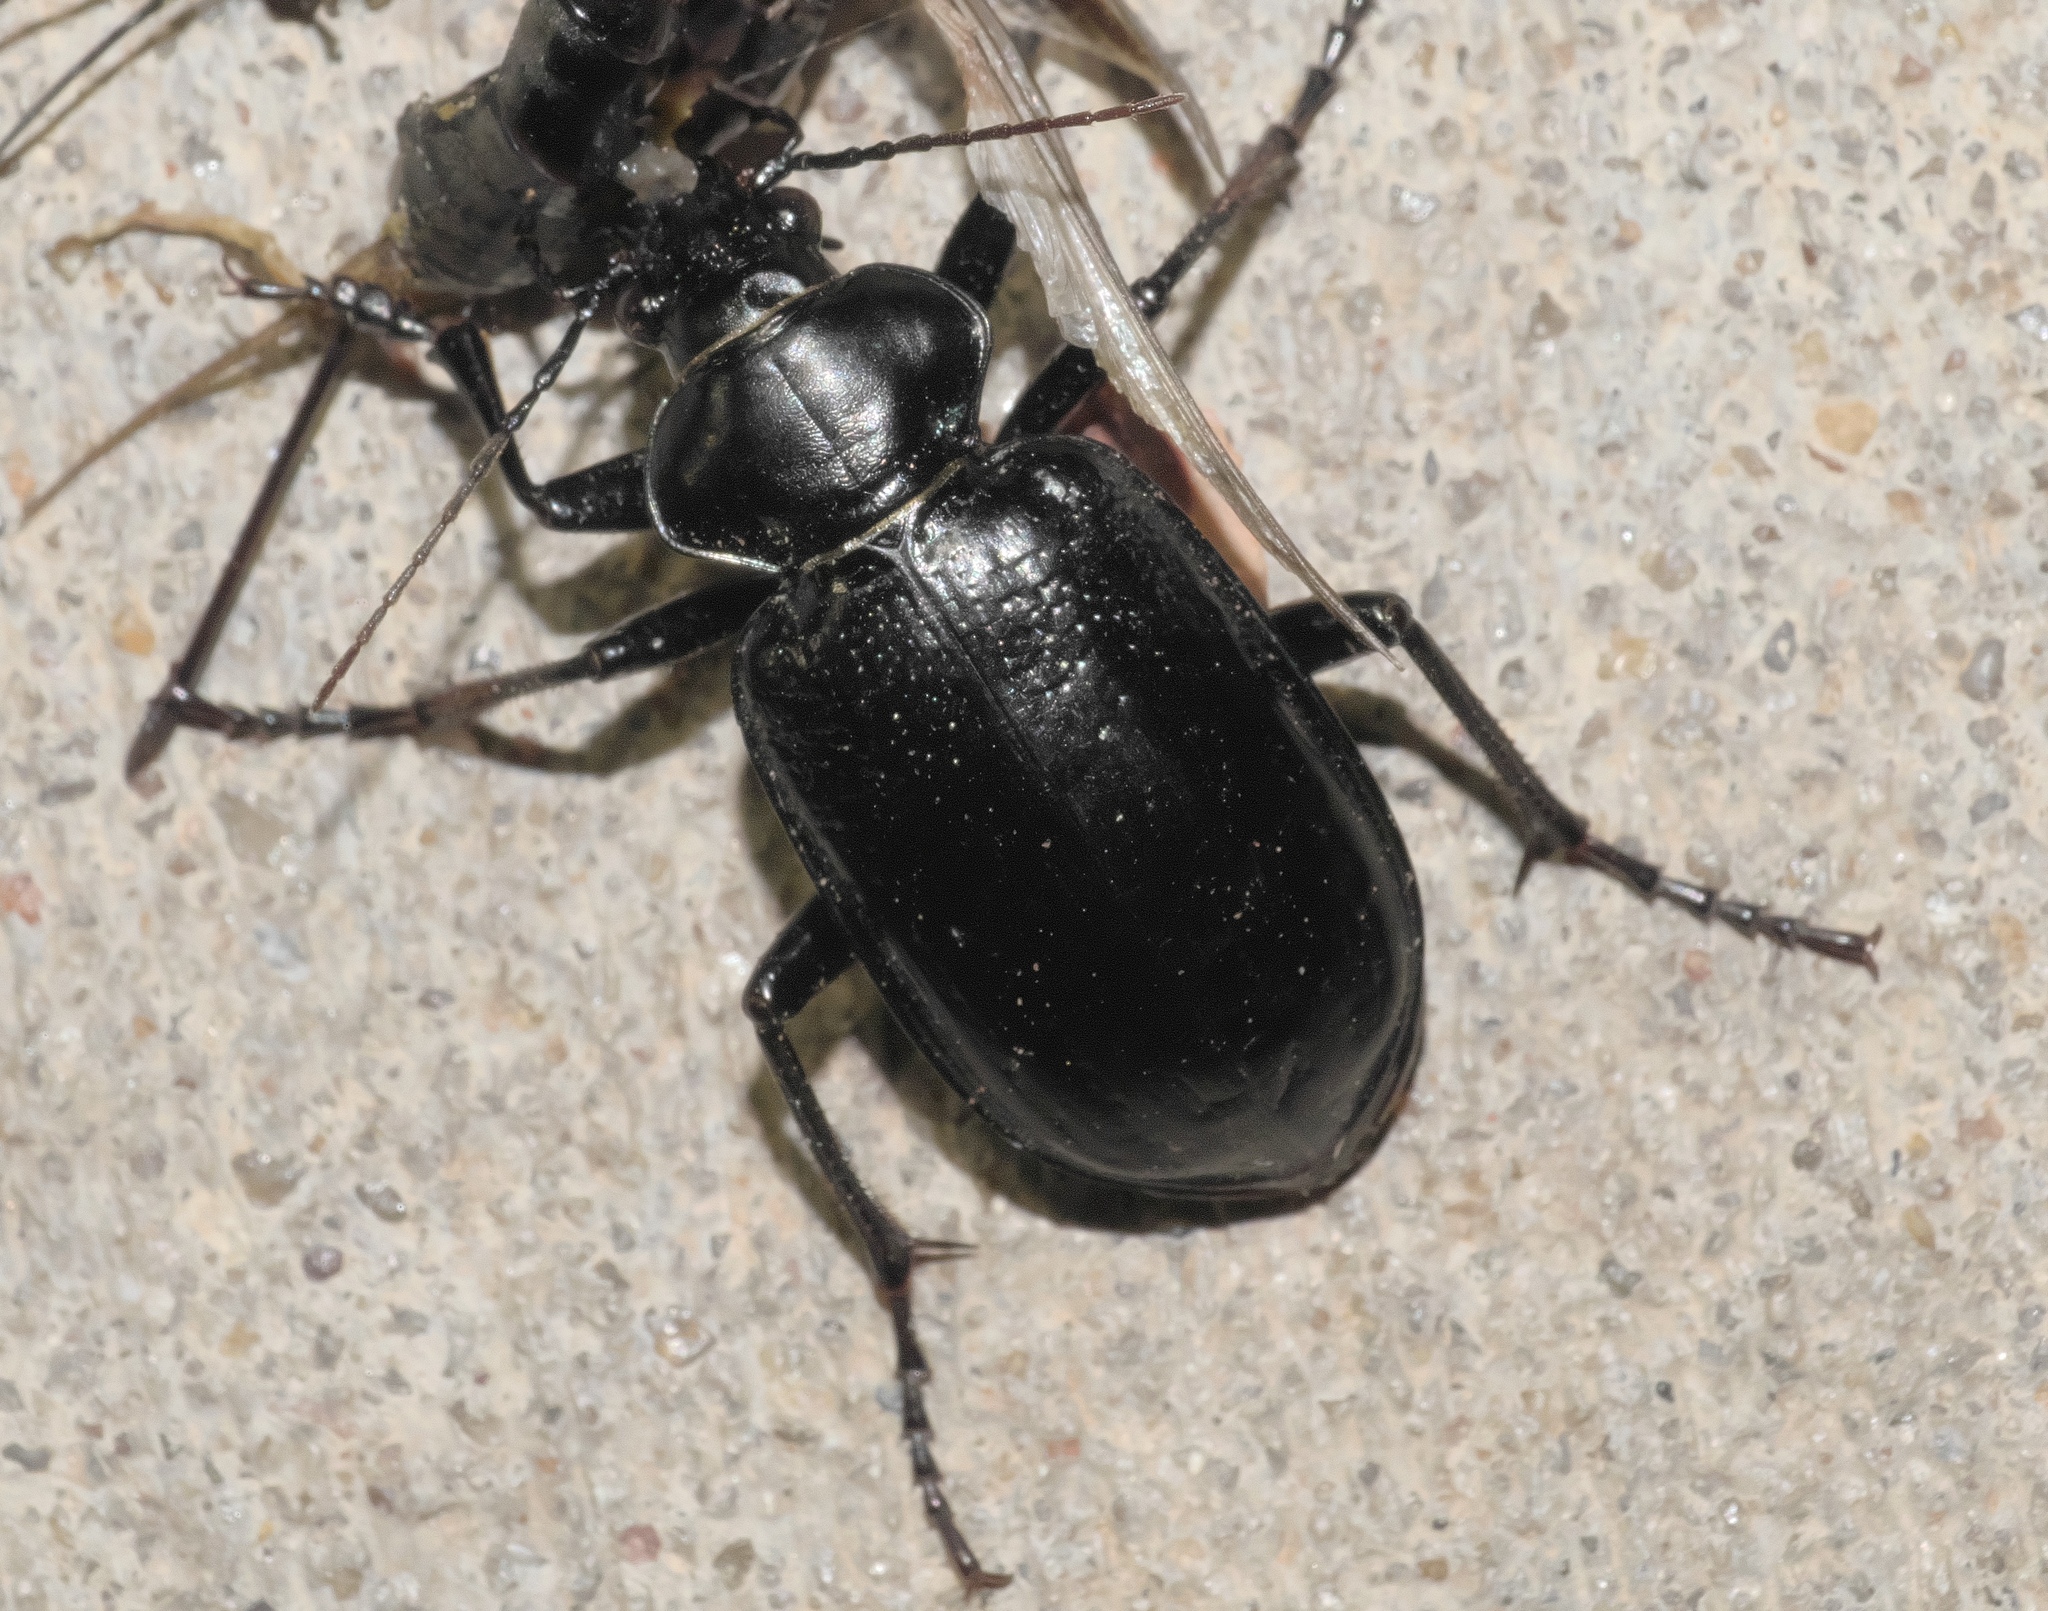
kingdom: Animalia
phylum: Arthropoda
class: Insecta
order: Coleoptera
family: Carabidae
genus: Calosoma
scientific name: Calosoma marginale
